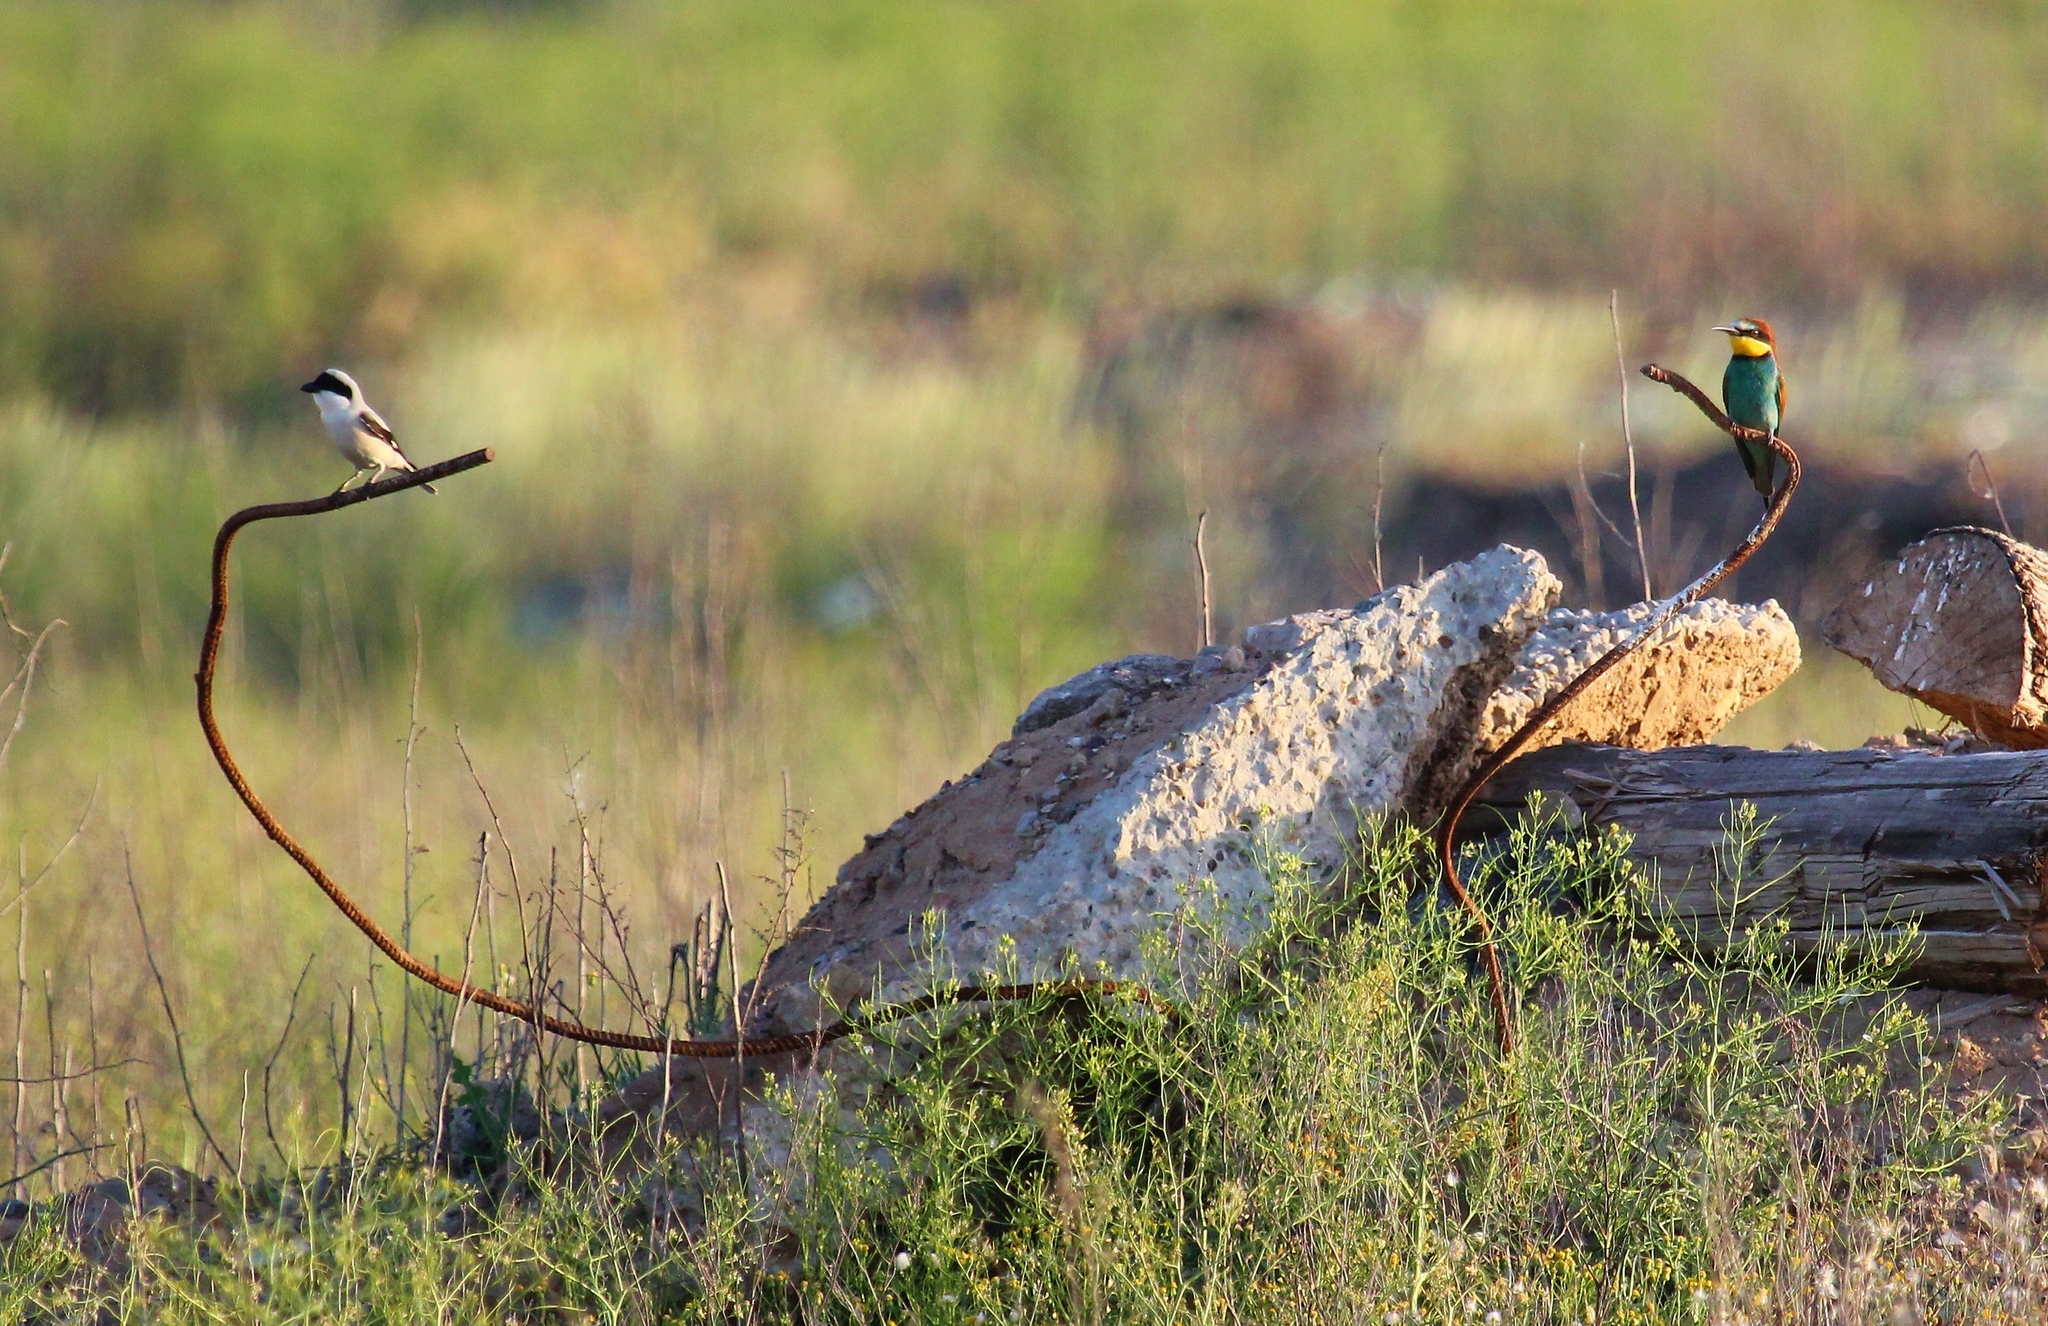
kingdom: Animalia
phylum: Chordata
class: Aves
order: Passeriformes
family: Laniidae
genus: Lanius
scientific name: Lanius minor
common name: Lesser grey shrike
